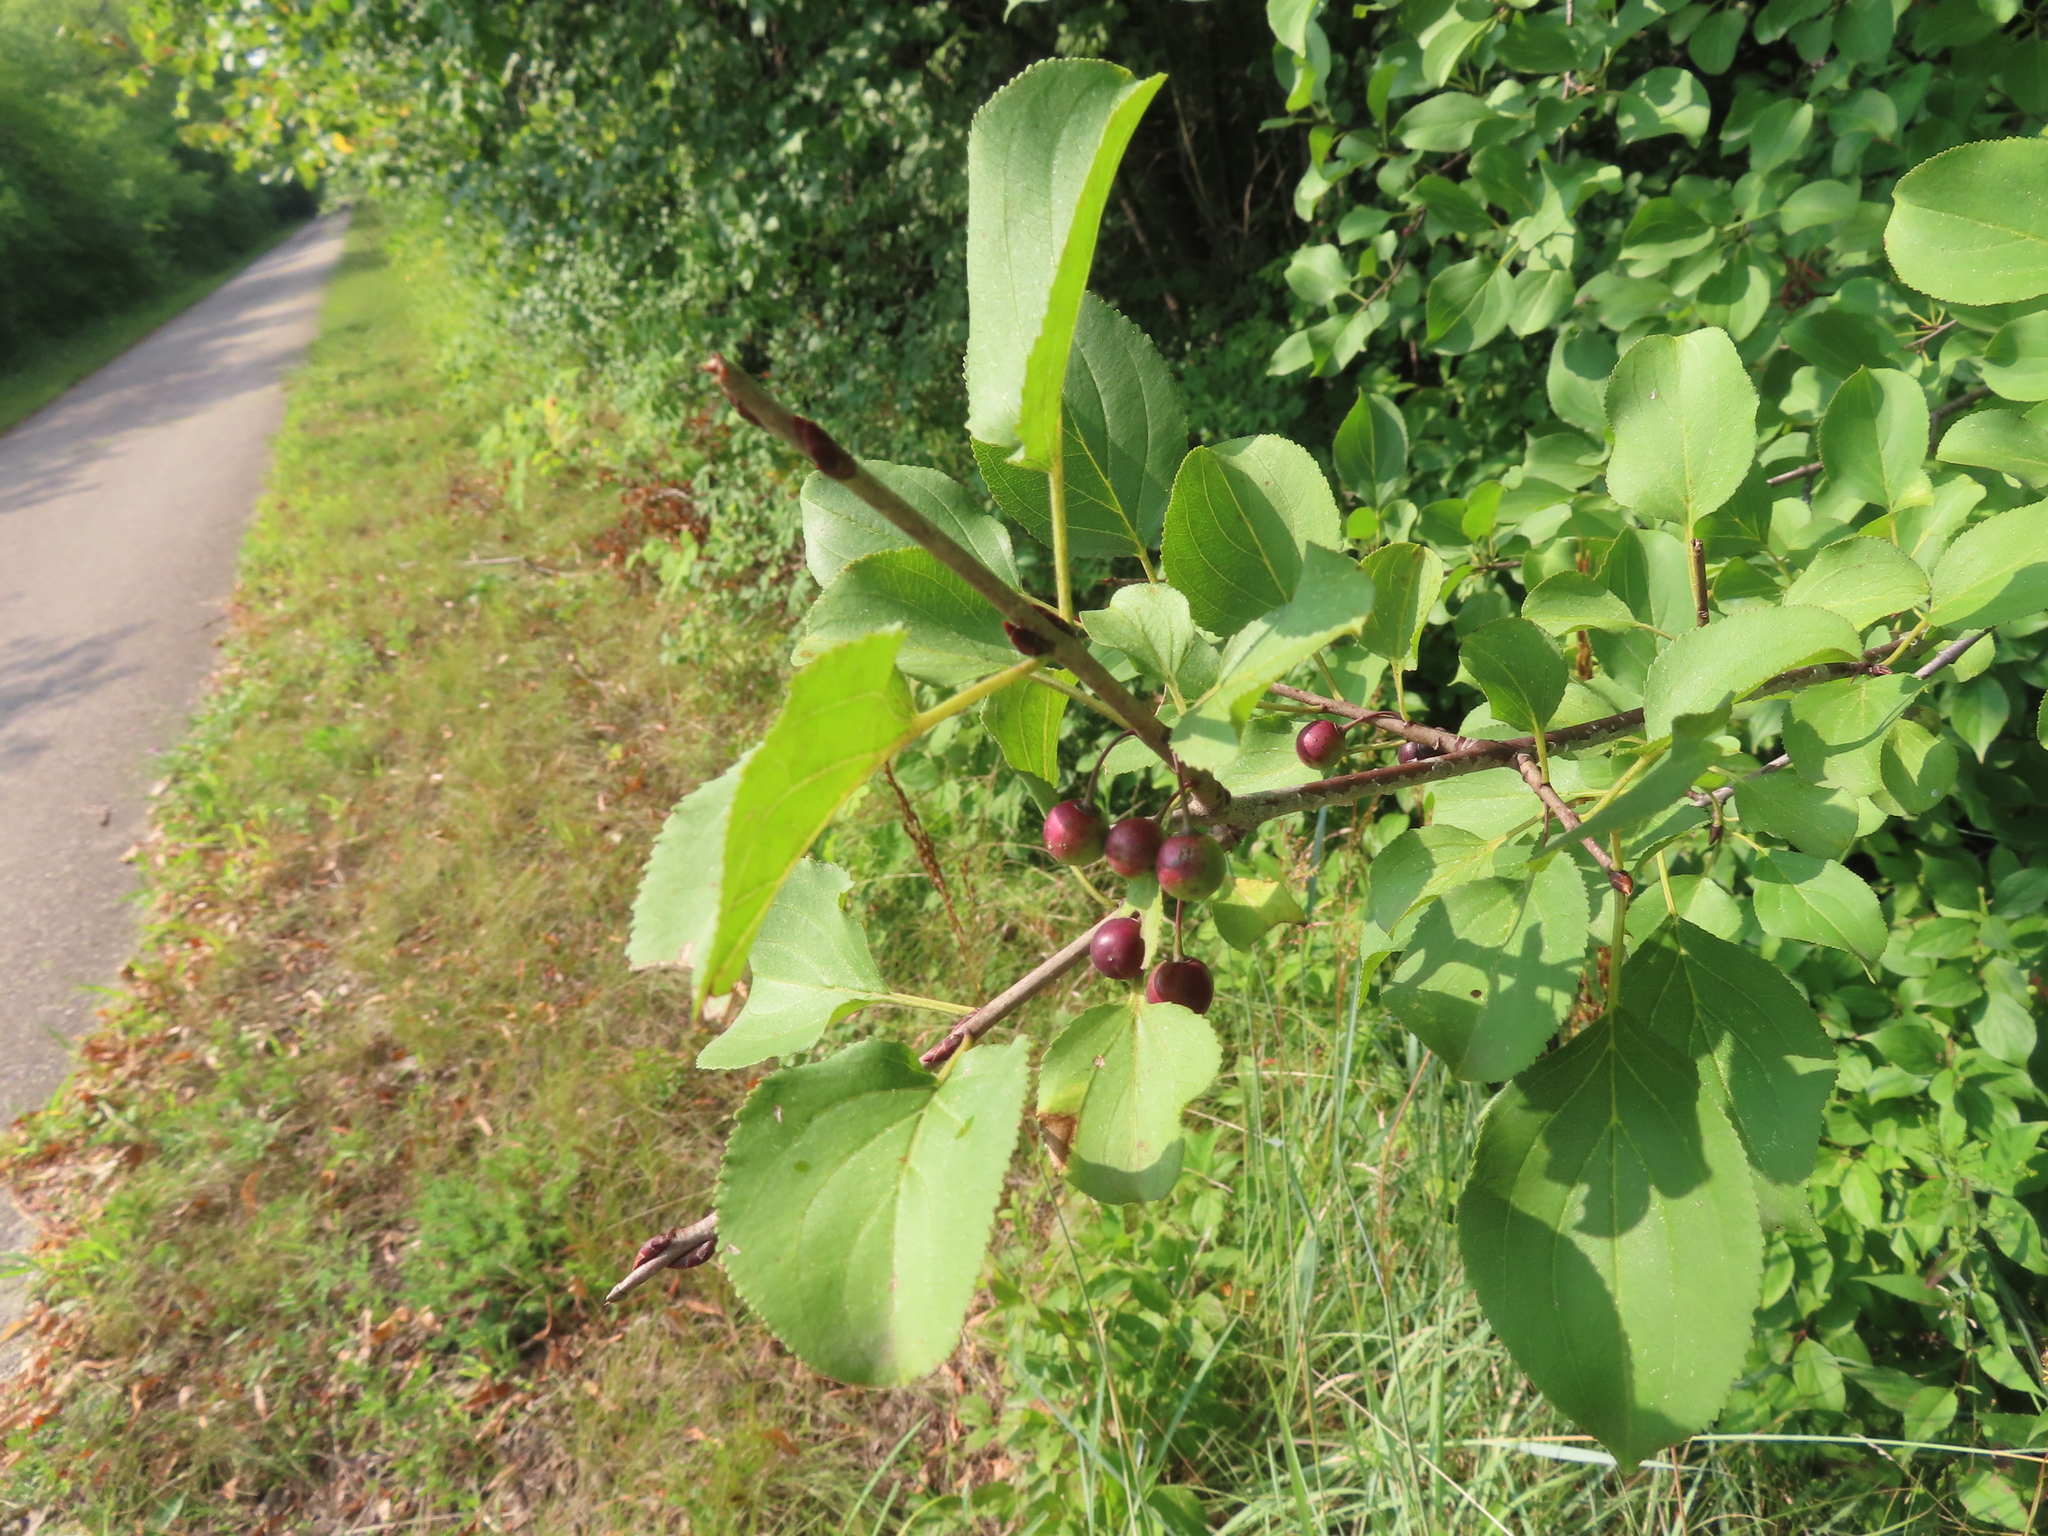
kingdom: Plantae
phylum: Tracheophyta
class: Magnoliopsida
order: Rosales
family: Rhamnaceae
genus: Rhamnus
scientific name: Rhamnus cathartica
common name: Common buckthorn
